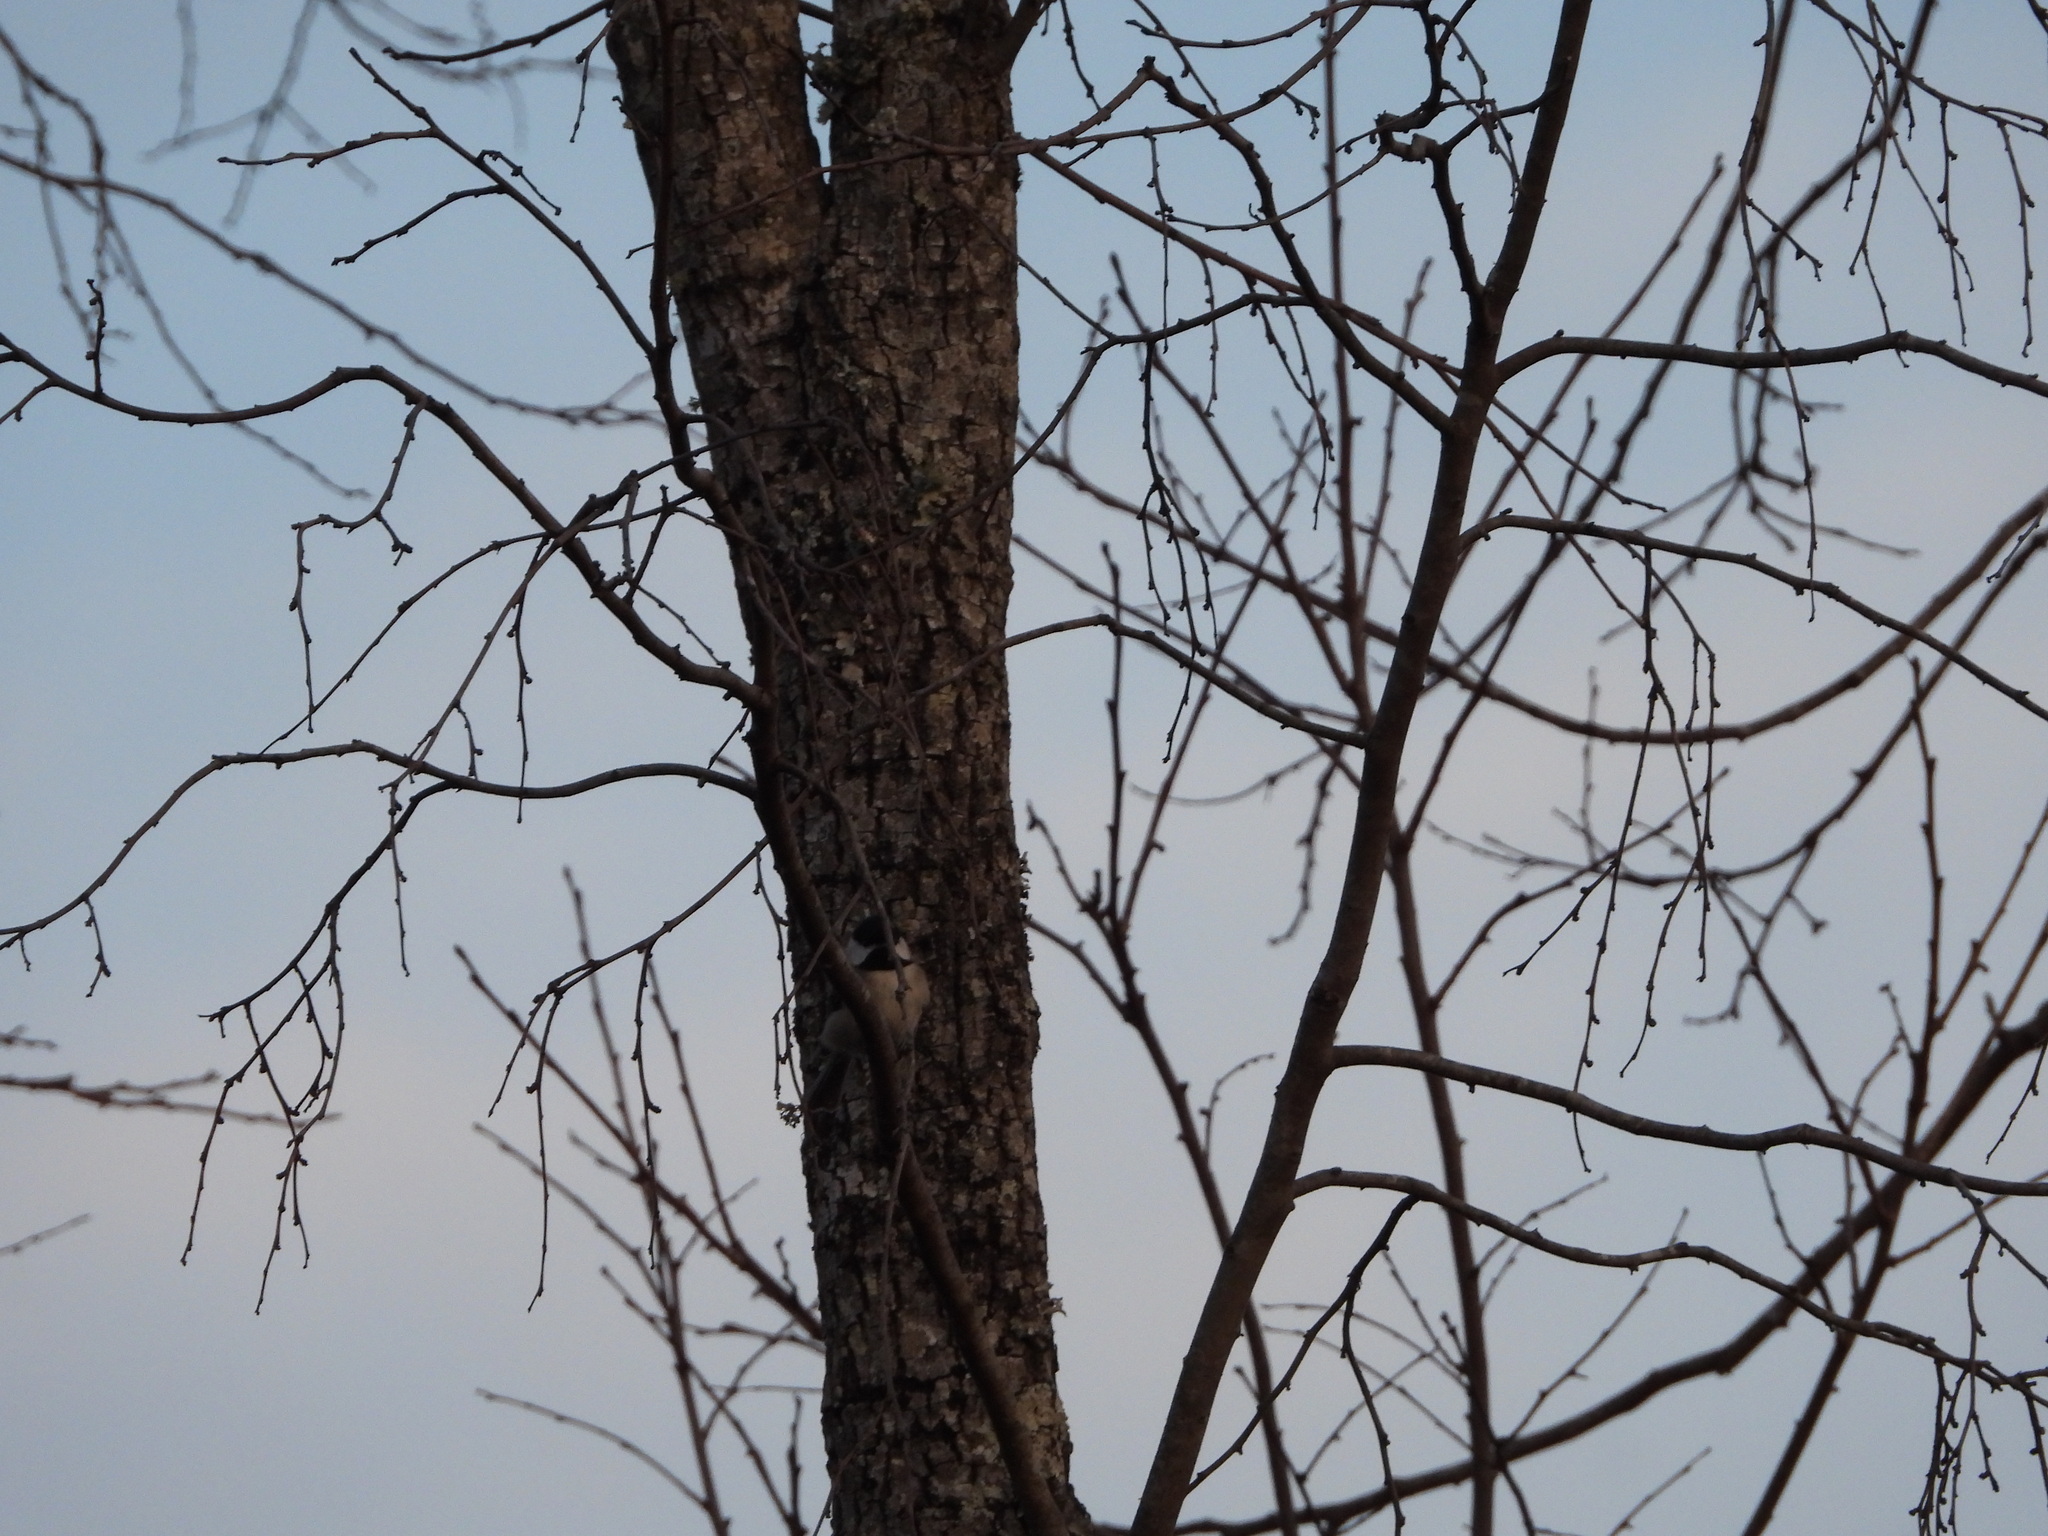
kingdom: Animalia
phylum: Chordata
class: Aves
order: Passeriformes
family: Paridae
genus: Poecile
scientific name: Poecile carolinensis
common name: Carolina chickadee
